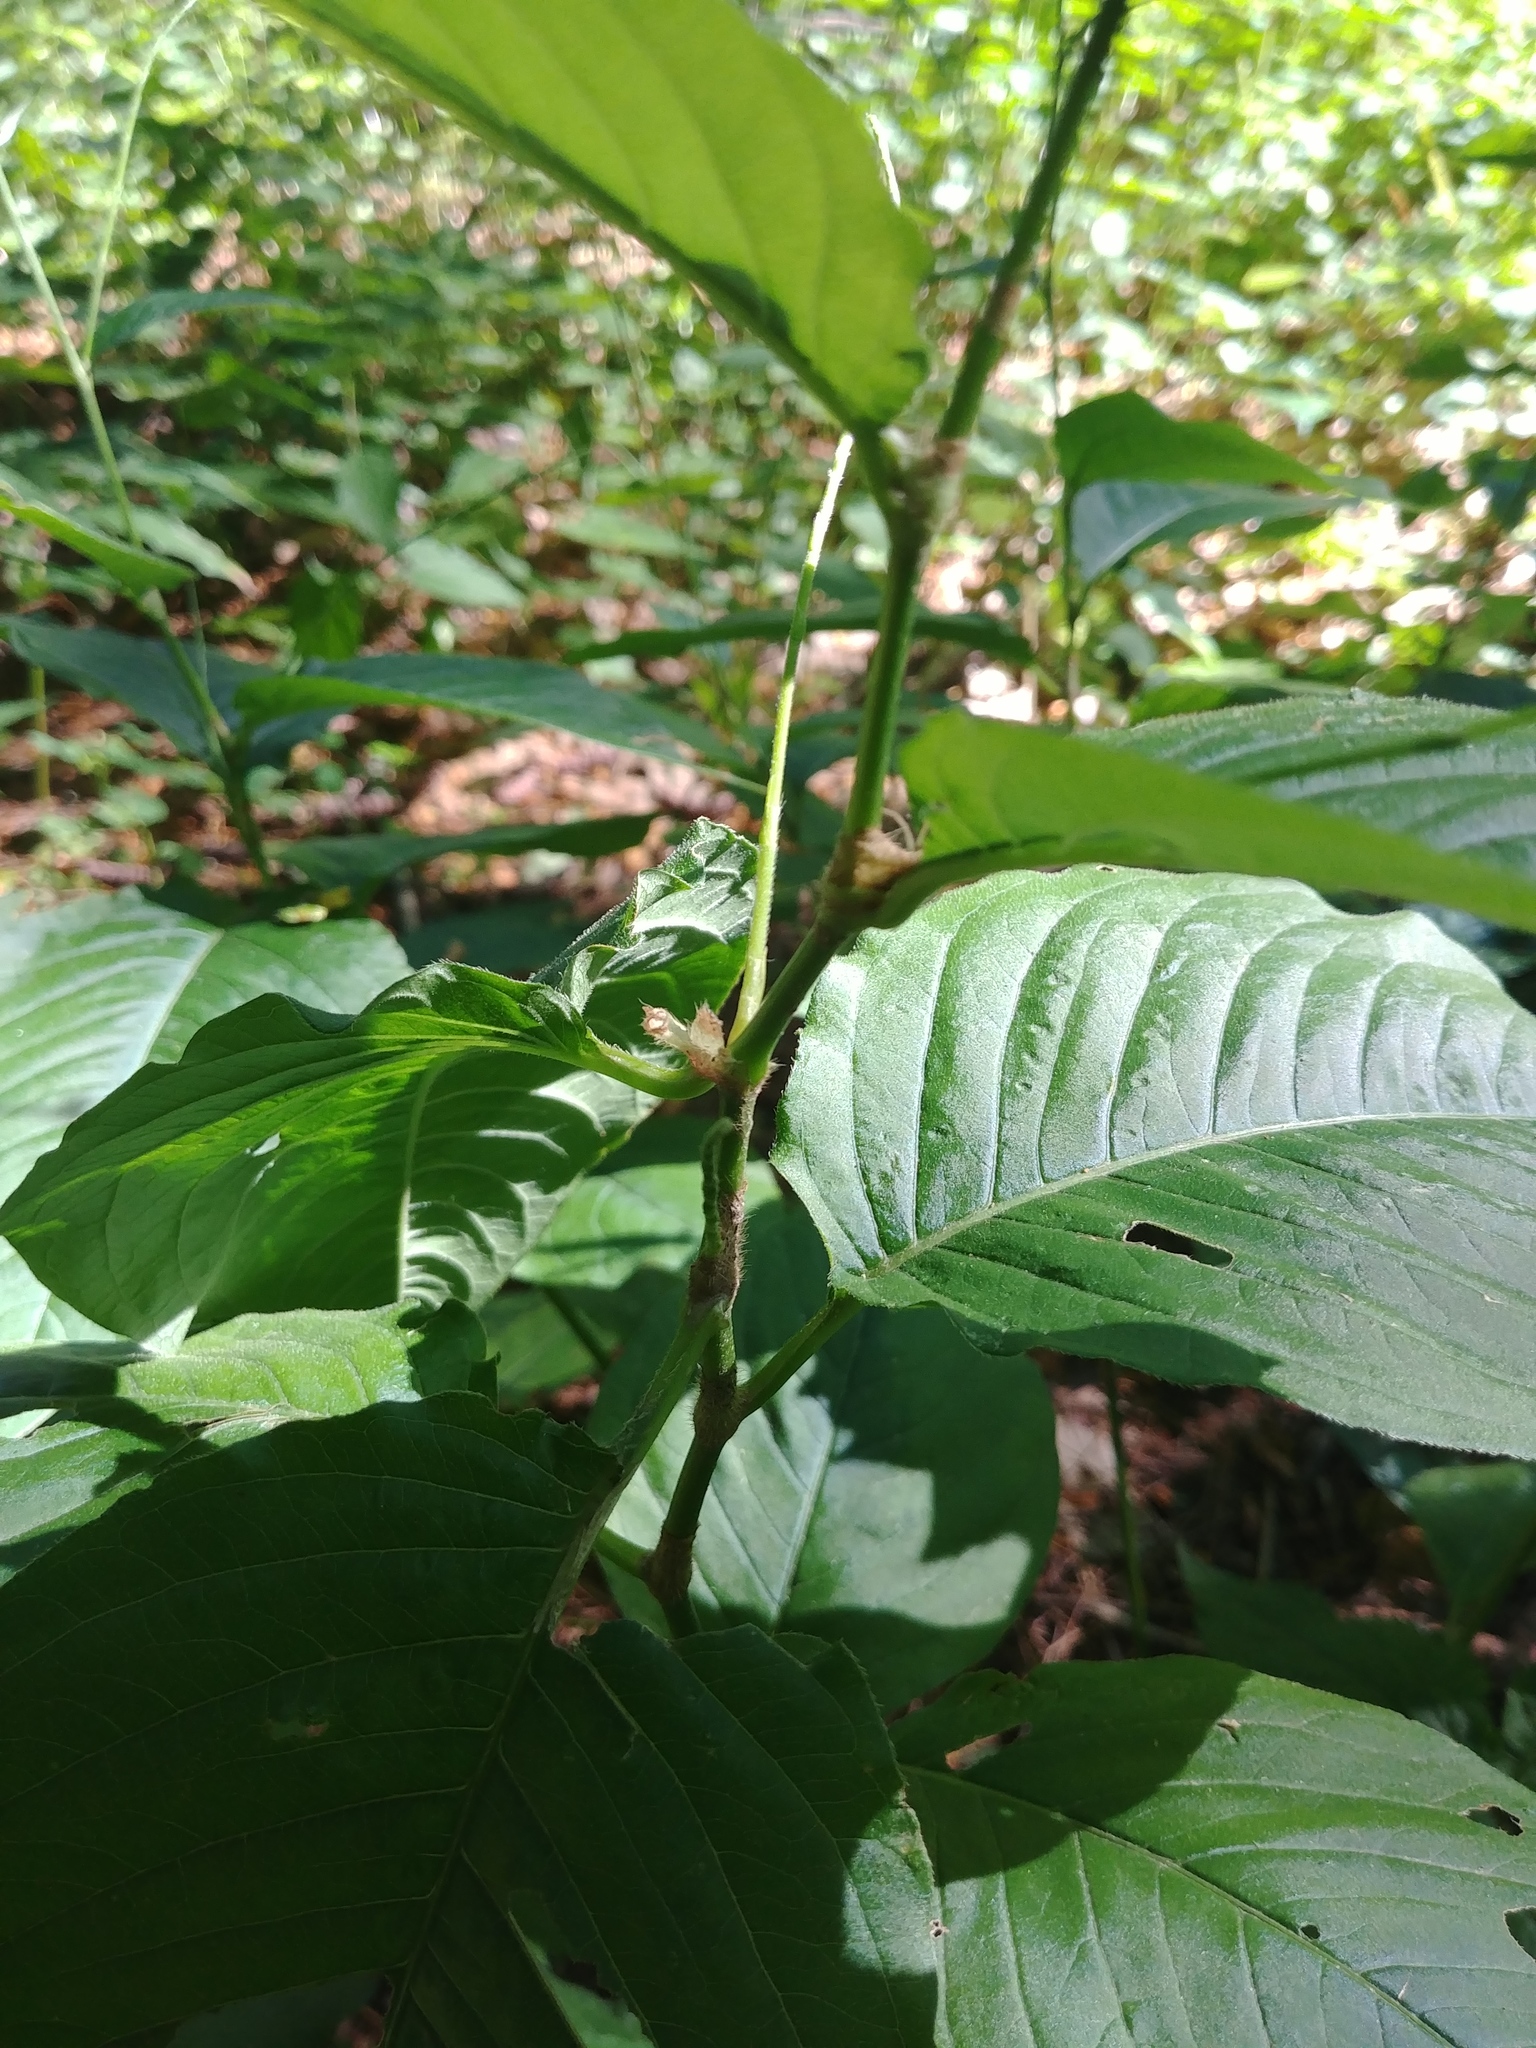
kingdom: Plantae
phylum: Tracheophyta
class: Magnoliopsida
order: Caryophyllales
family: Polygonaceae
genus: Persicaria
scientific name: Persicaria virginiana
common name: Jumpseed
